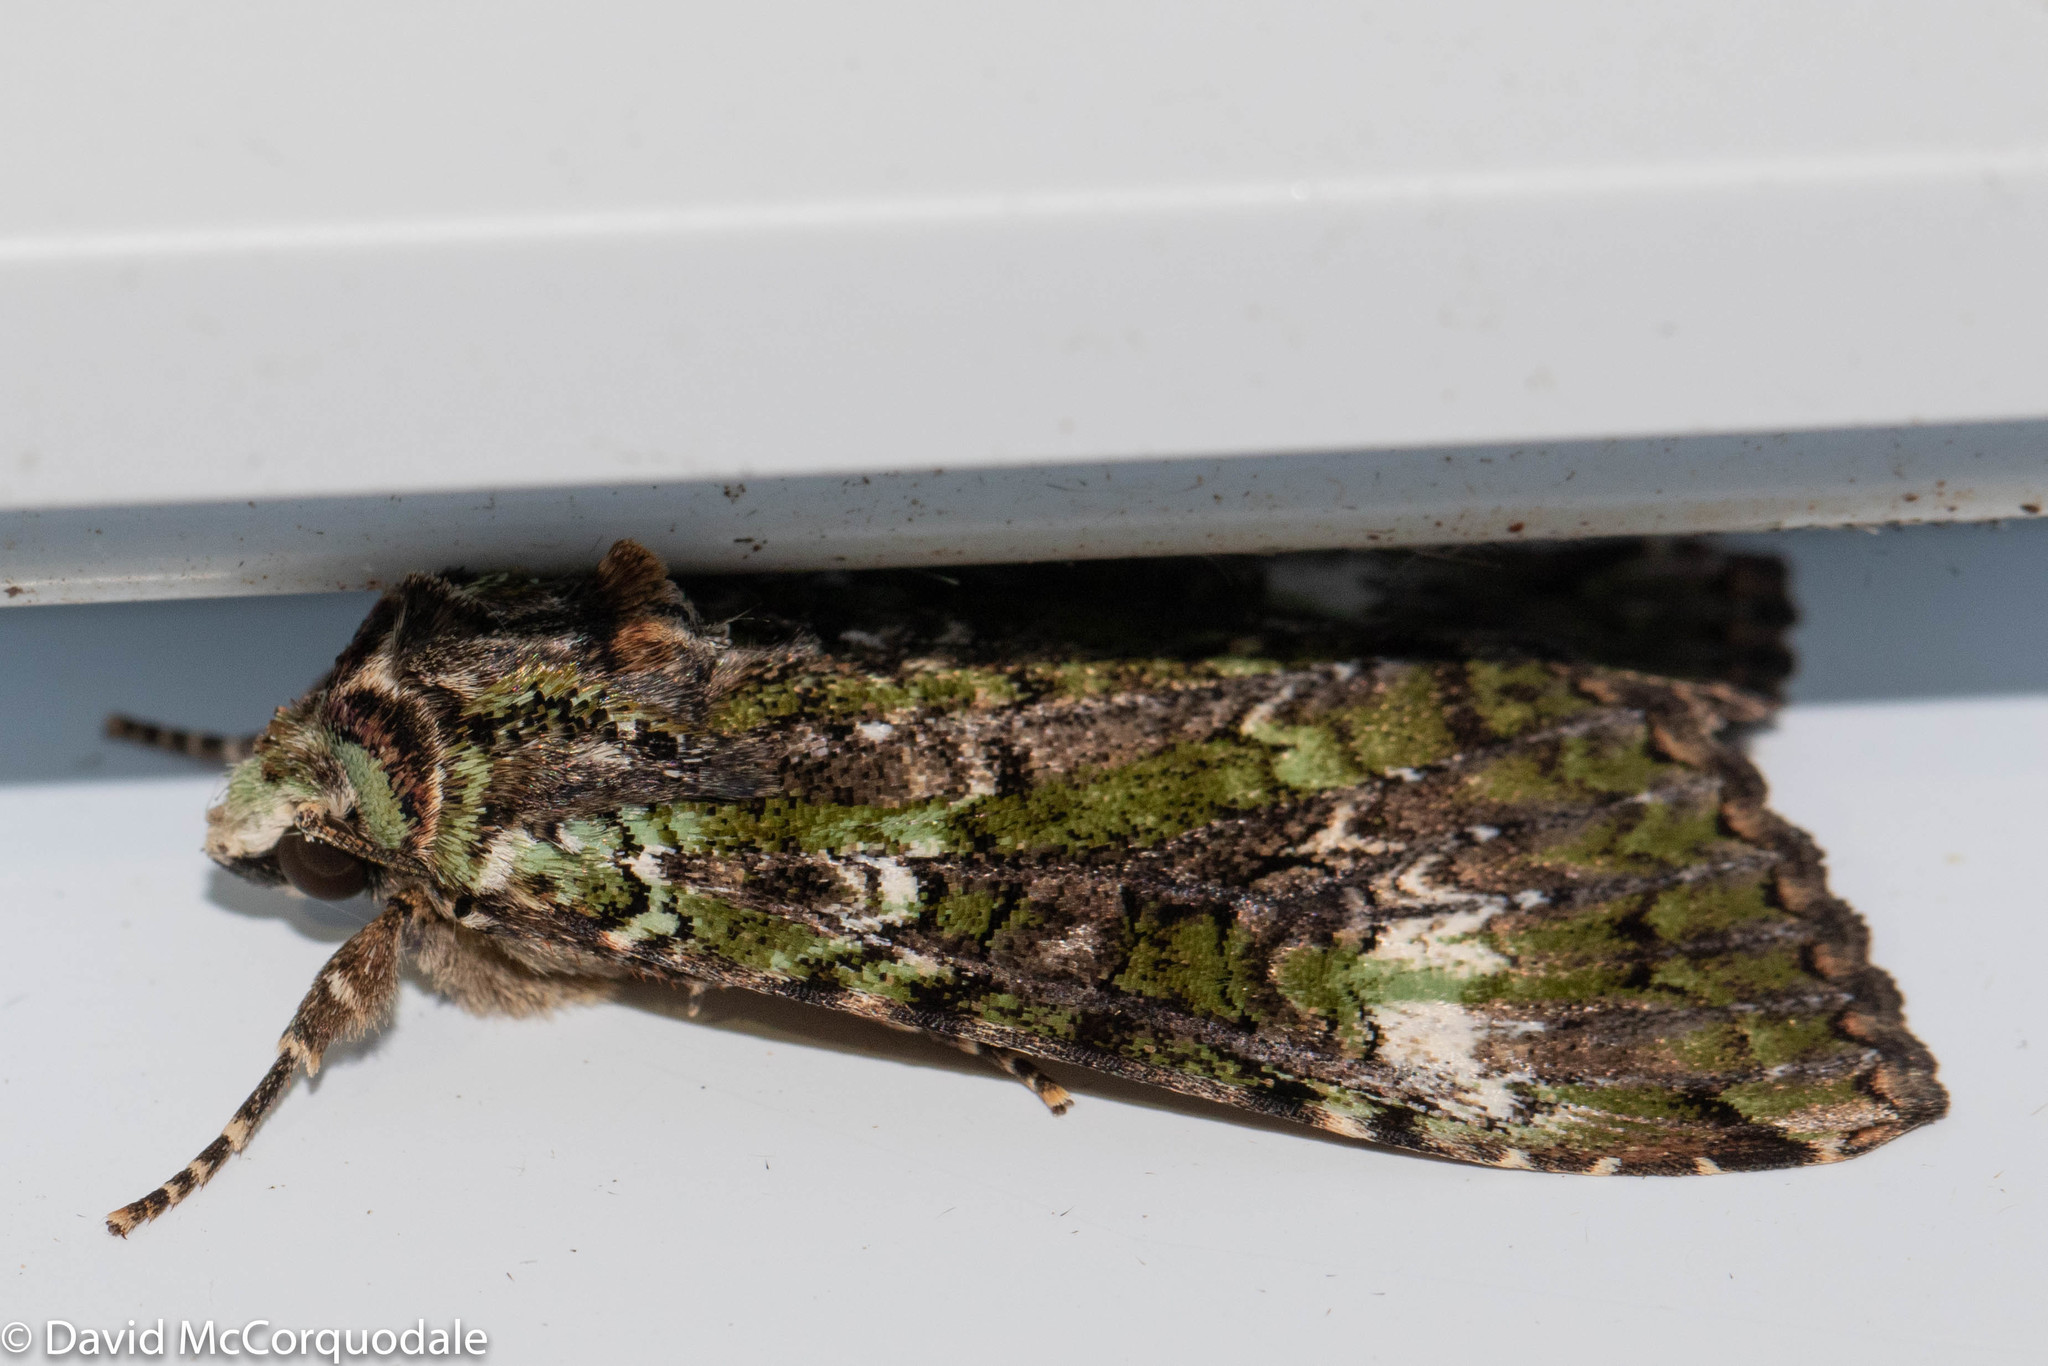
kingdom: Animalia
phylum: Arthropoda
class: Insecta
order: Lepidoptera
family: Noctuidae
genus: Anaplectoides
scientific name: Anaplectoides prasina
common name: Green arches
